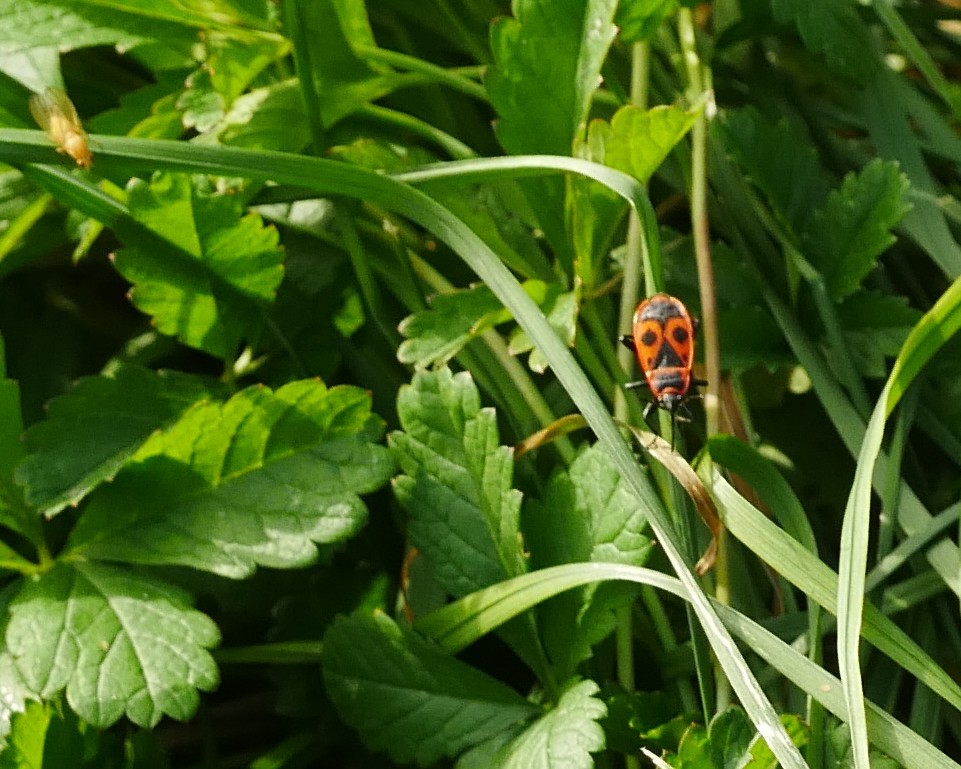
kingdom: Animalia
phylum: Arthropoda
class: Insecta
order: Hemiptera
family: Pyrrhocoridae
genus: Pyrrhocoris
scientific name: Pyrrhocoris apterus
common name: Firebug
